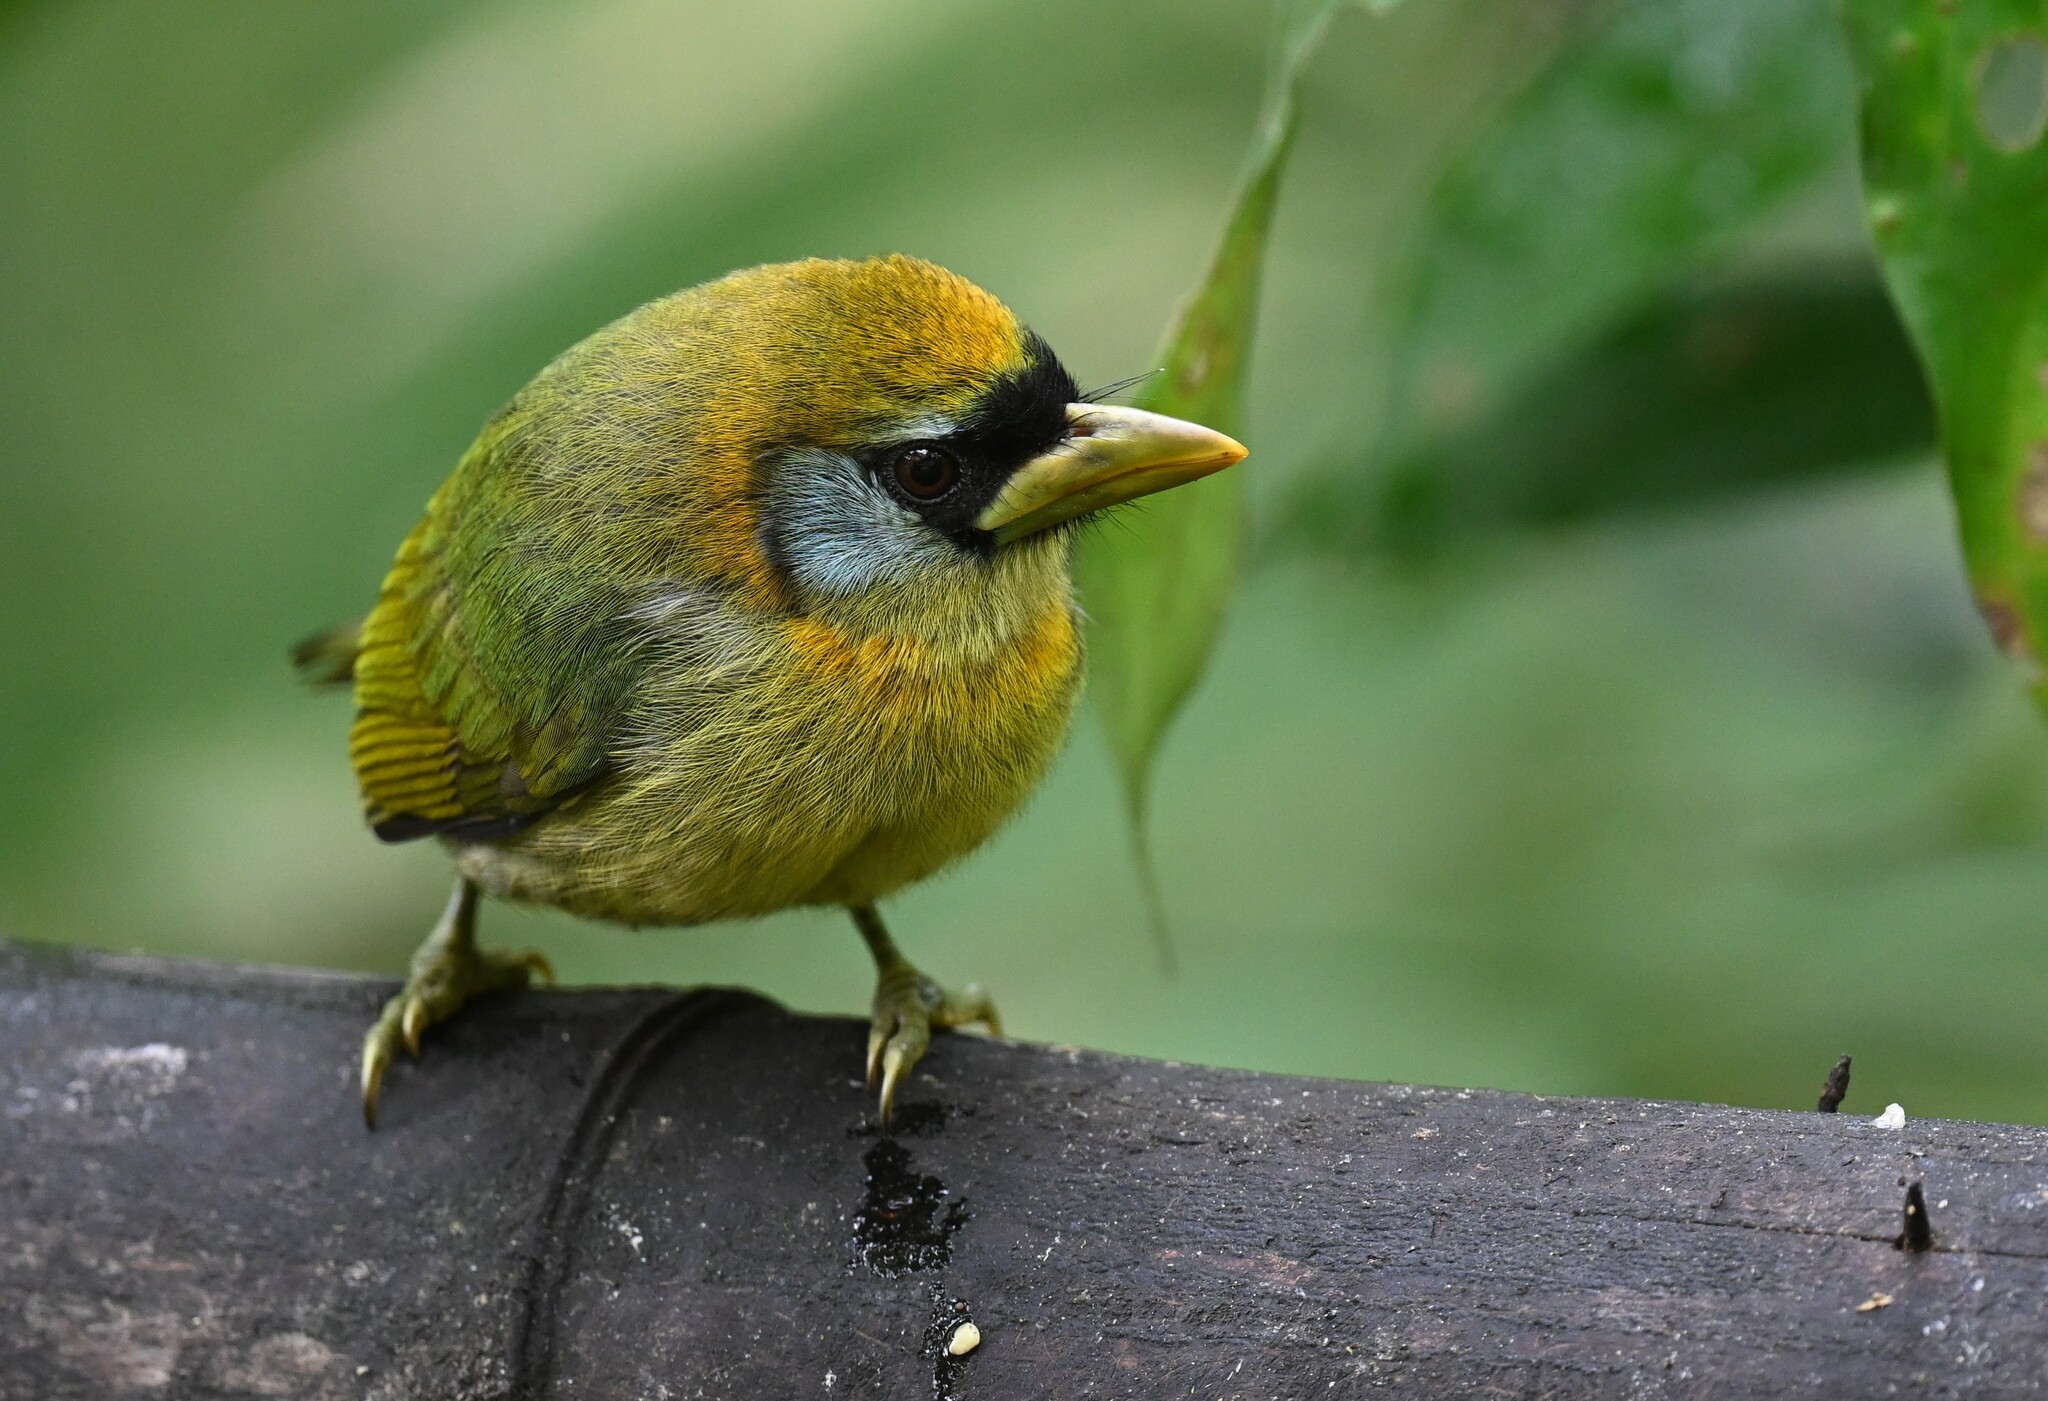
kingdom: Animalia
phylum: Chordata
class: Aves
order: Piciformes
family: Capitonidae
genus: Eubucco
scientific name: Eubucco bourcierii
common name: Red-headed barbet
